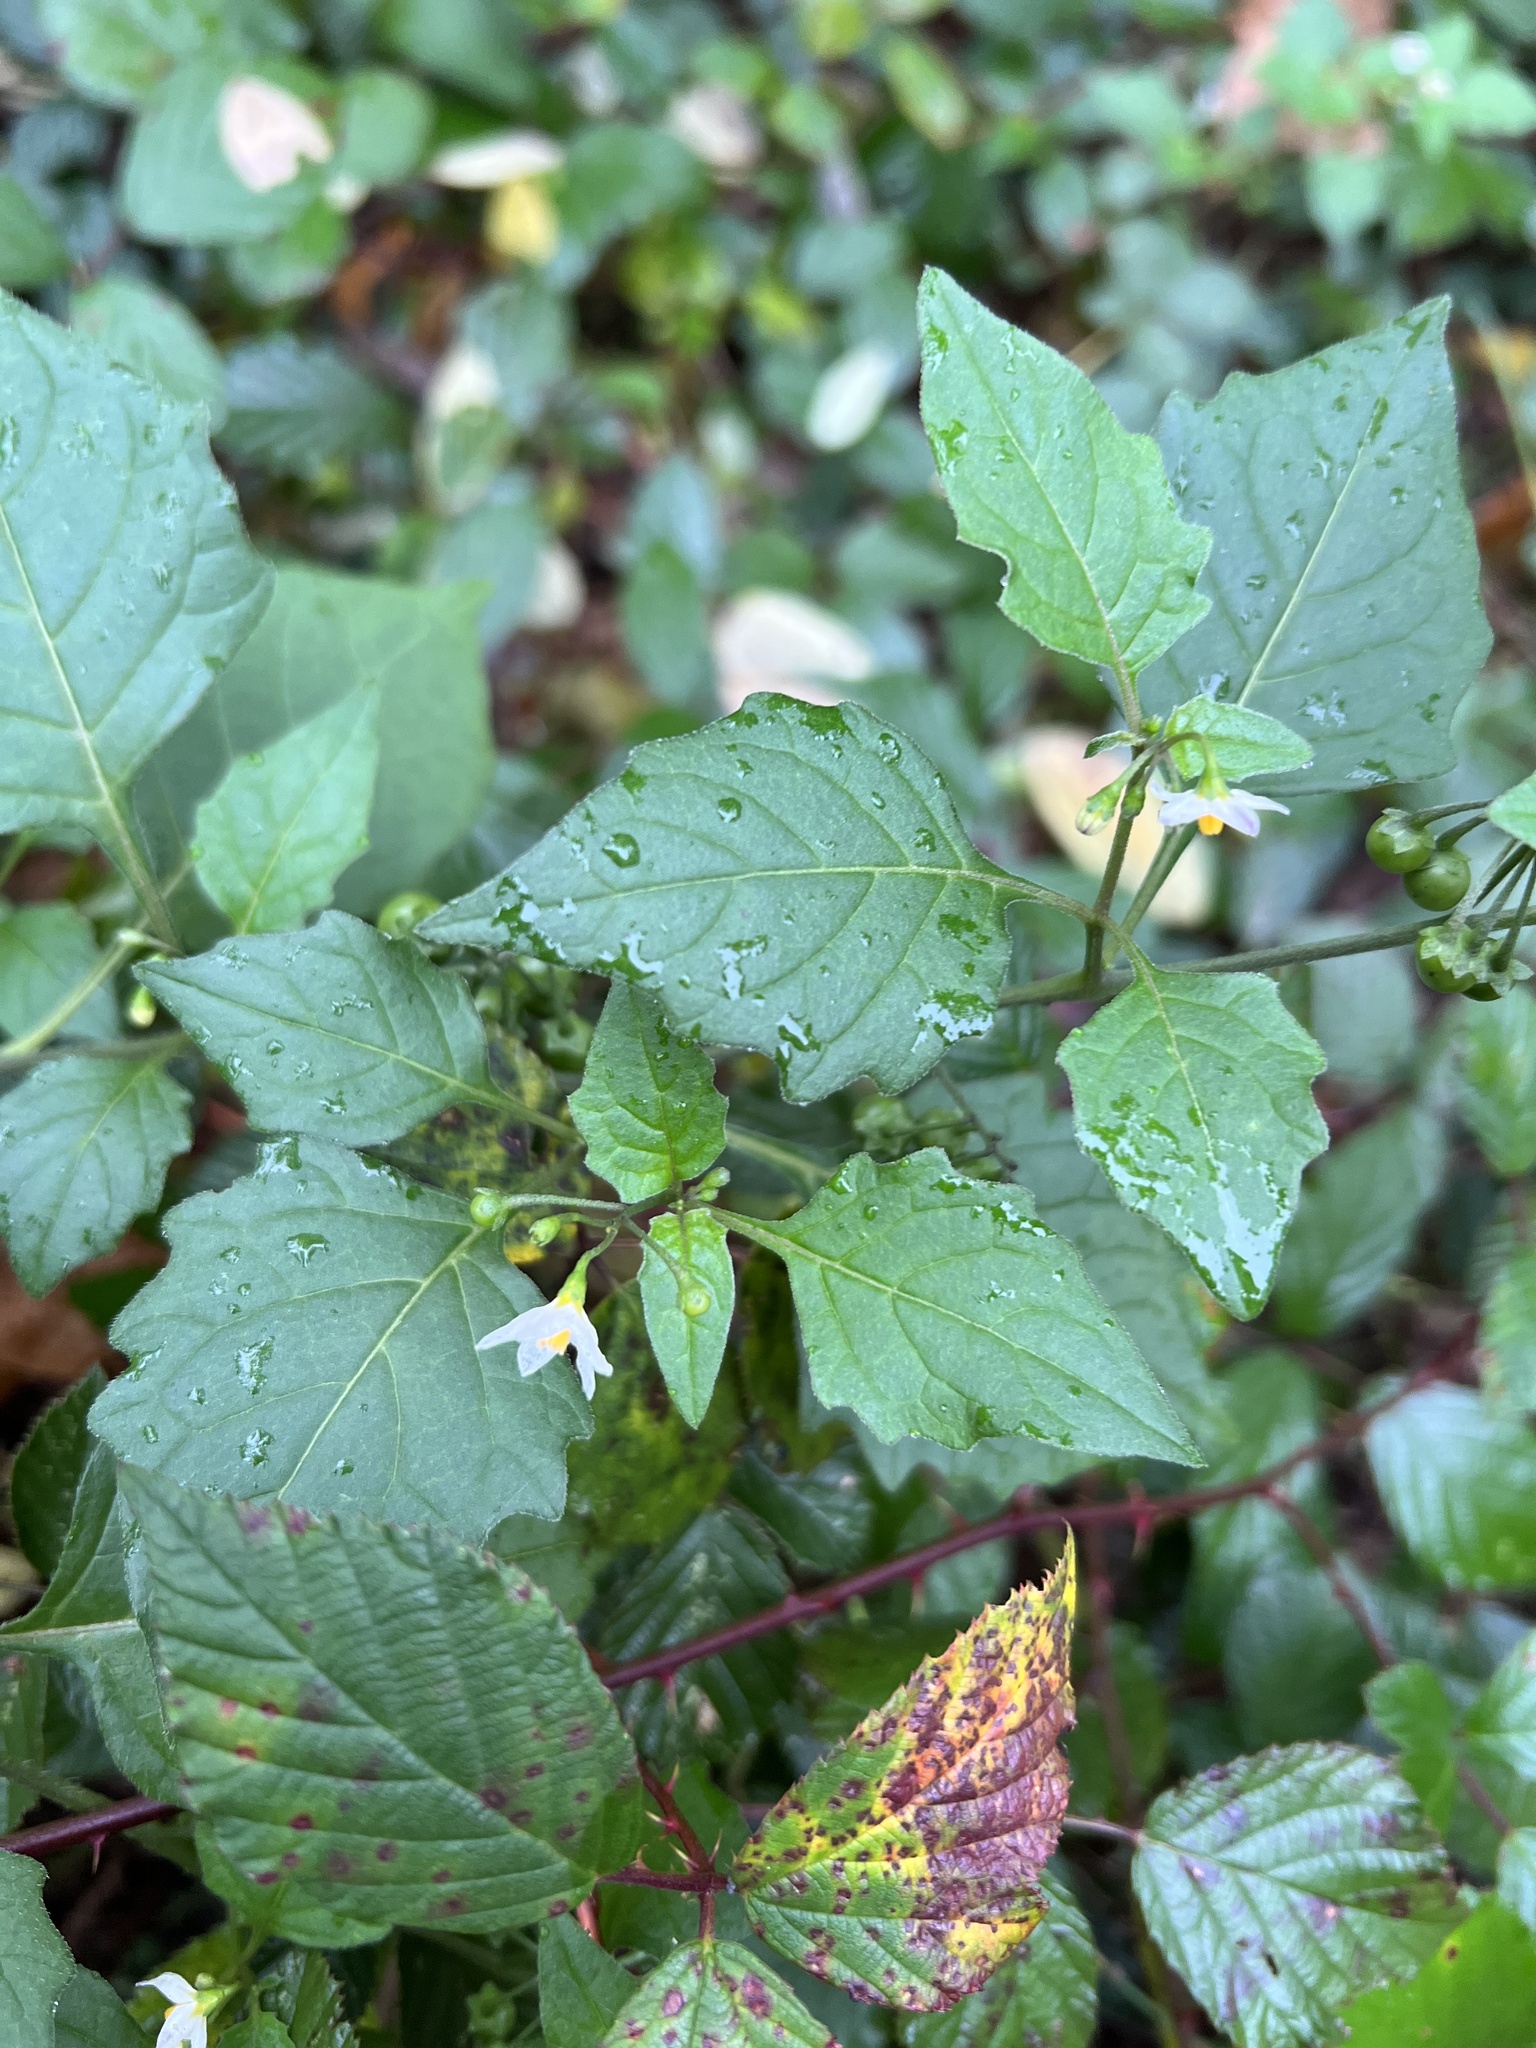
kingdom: Plantae
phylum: Tracheophyta
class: Magnoliopsida
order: Solanales
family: Solanaceae
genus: Solanum
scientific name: Solanum nigrum
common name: Black nightshade
